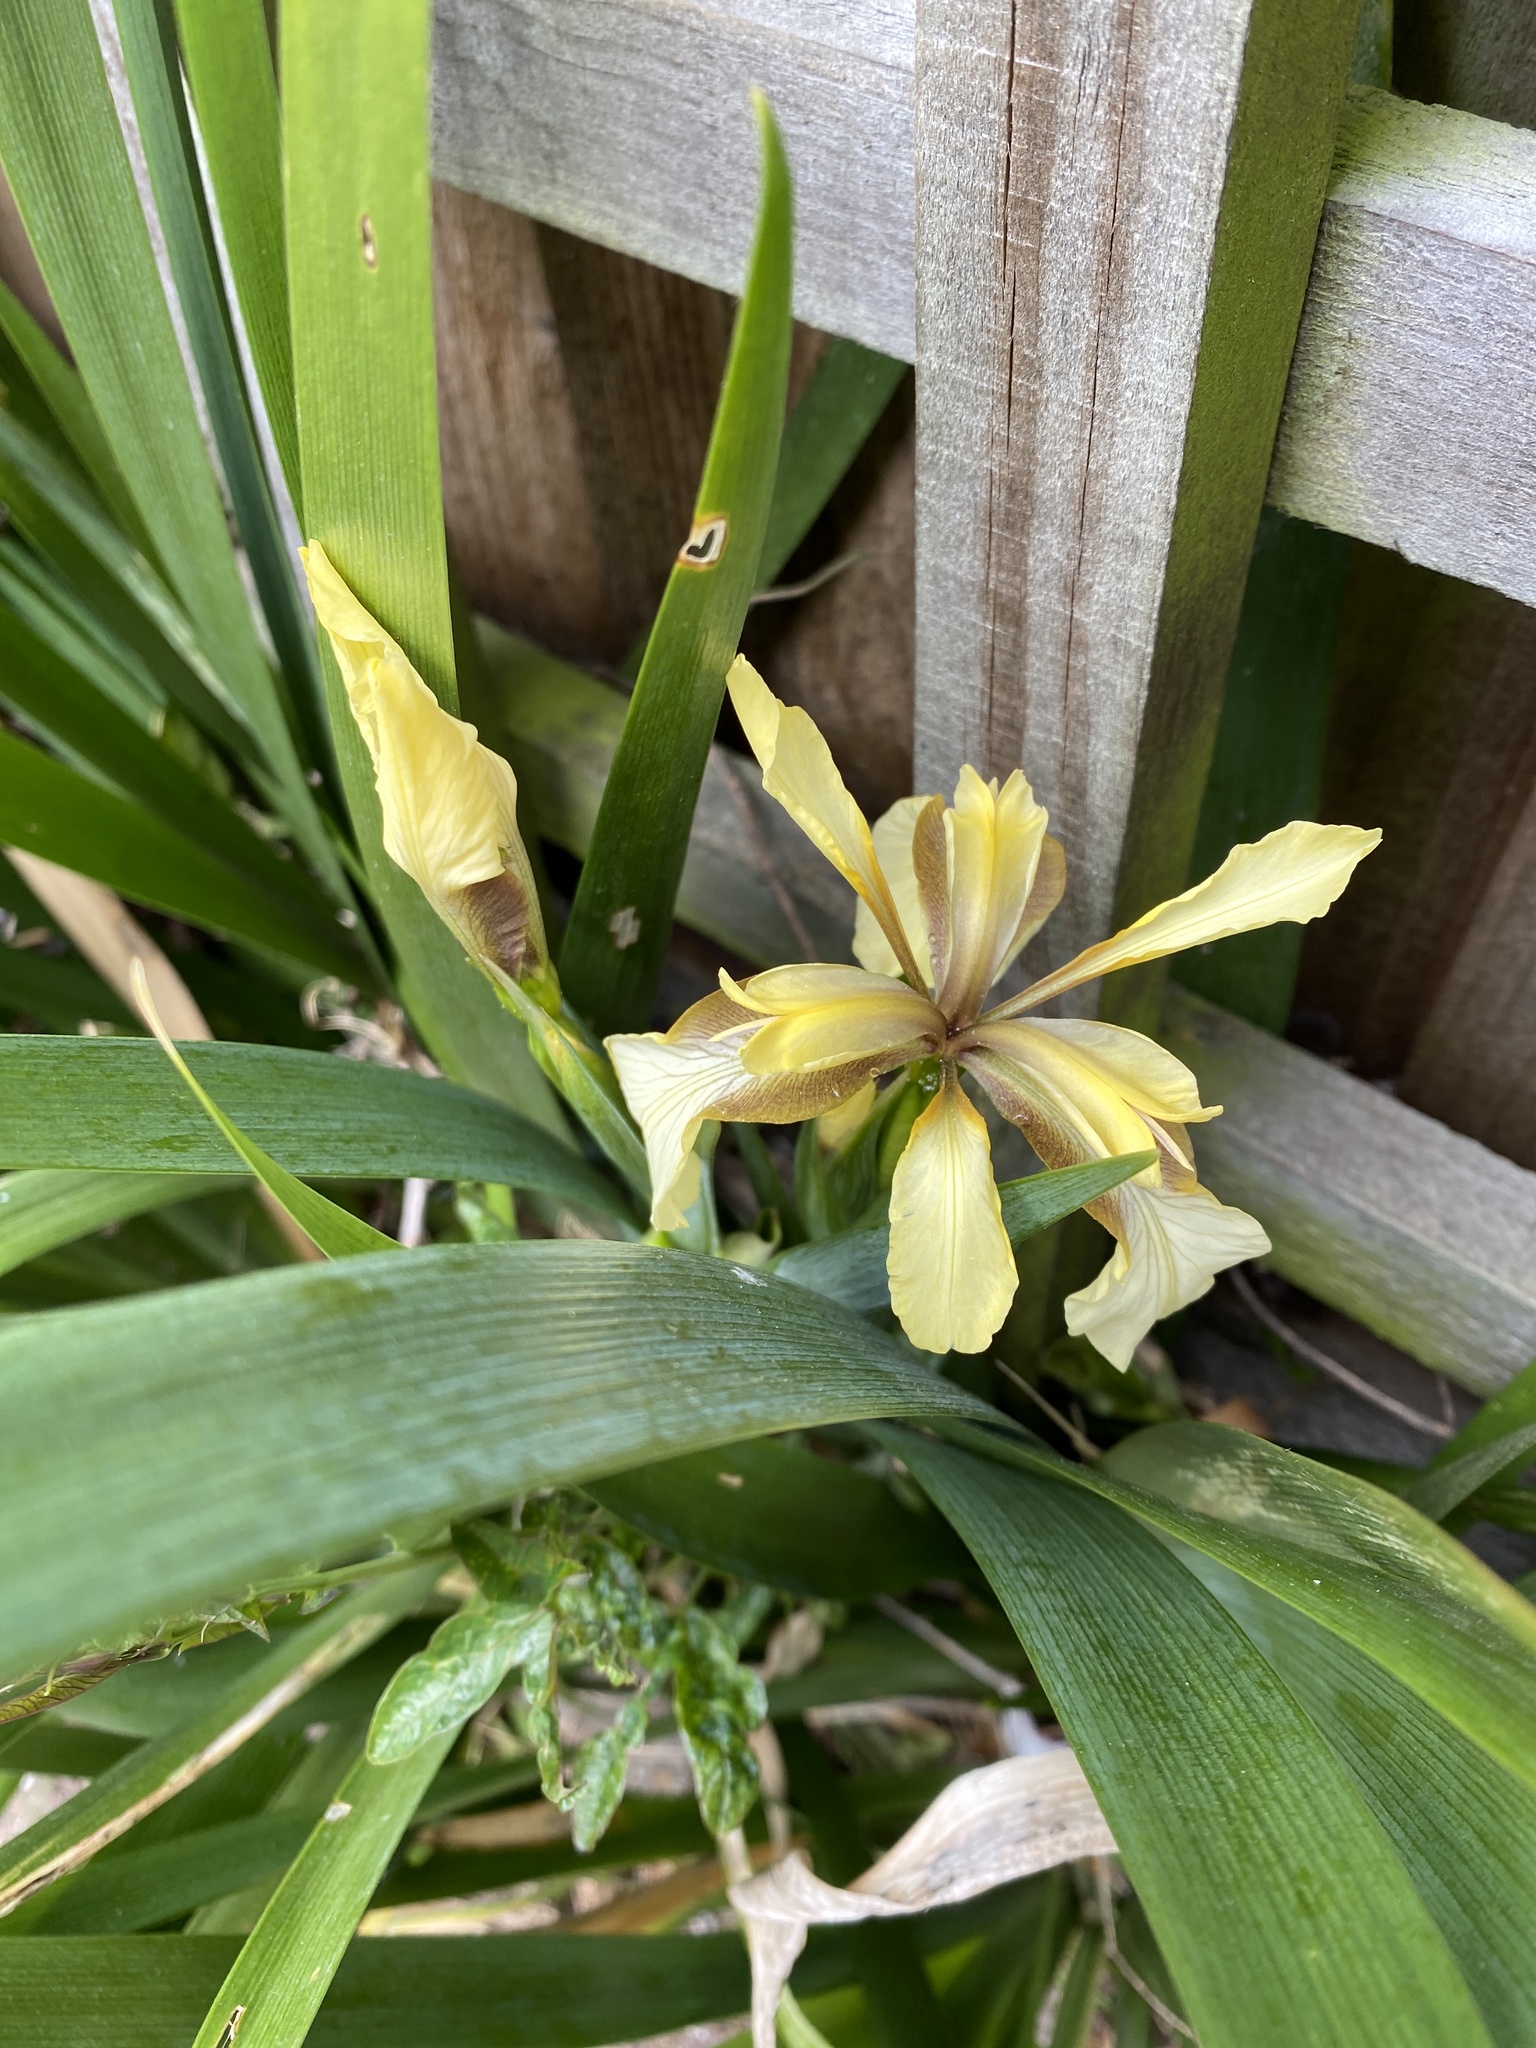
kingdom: Plantae
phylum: Tracheophyta
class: Liliopsida
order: Asparagales
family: Iridaceae
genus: Iris
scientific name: Iris foetidissima
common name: Stinking iris
